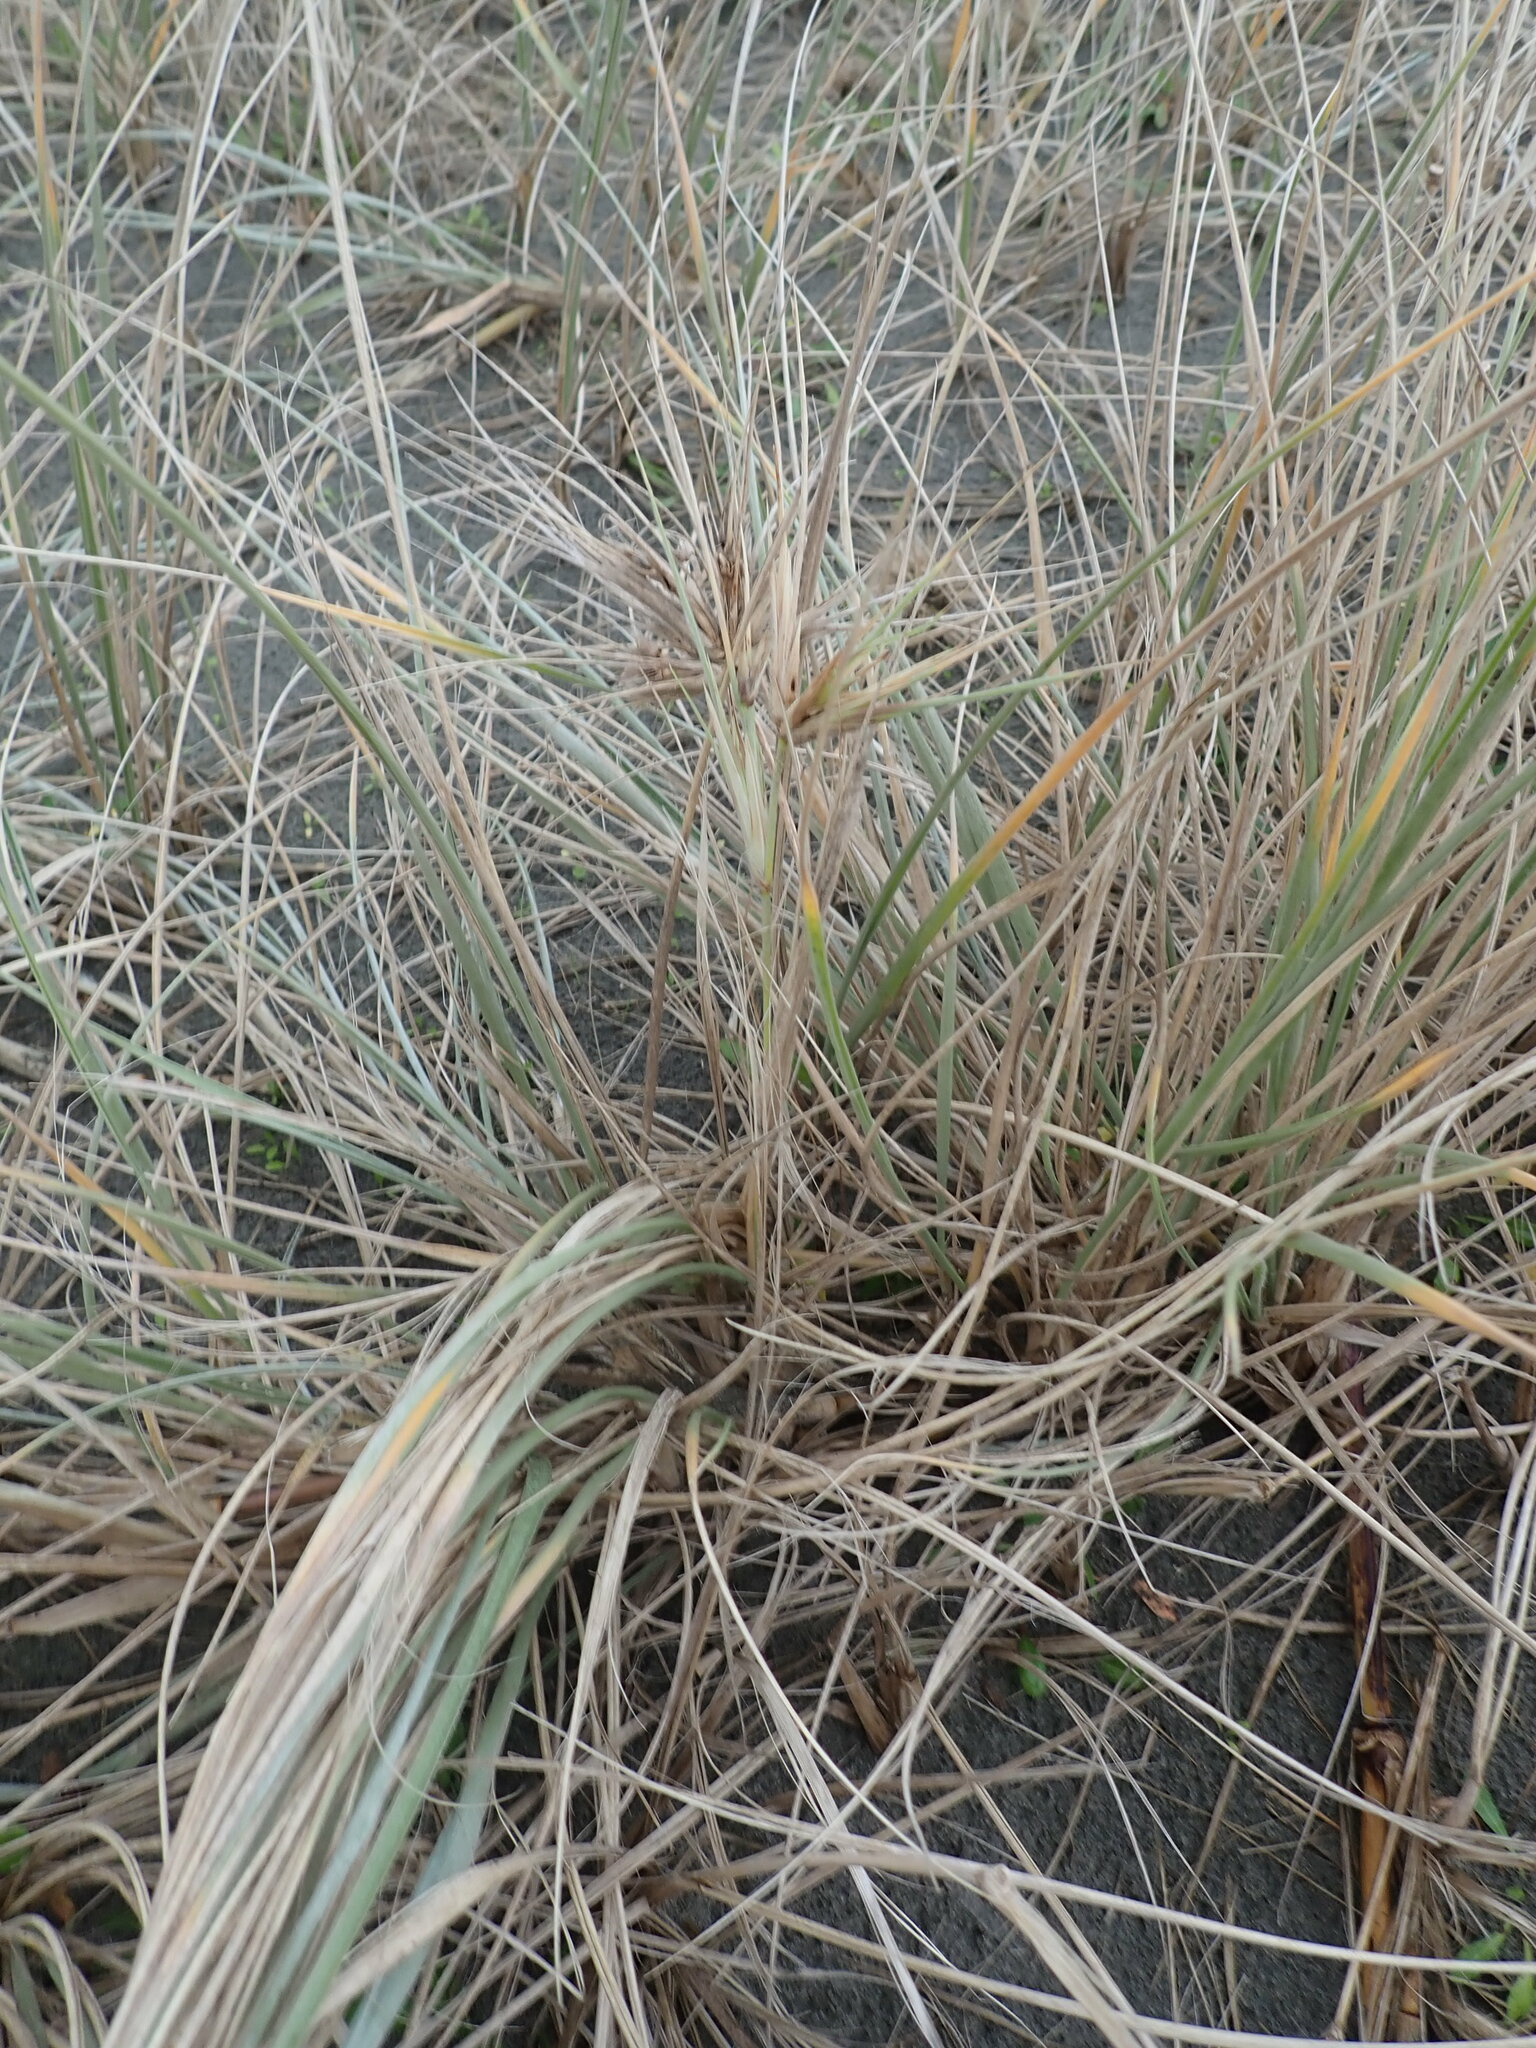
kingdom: Plantae
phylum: Tracheophyta
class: Liliopsida
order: Poales
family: Poaceae
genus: Spinifex
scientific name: Spinifex sericeus
